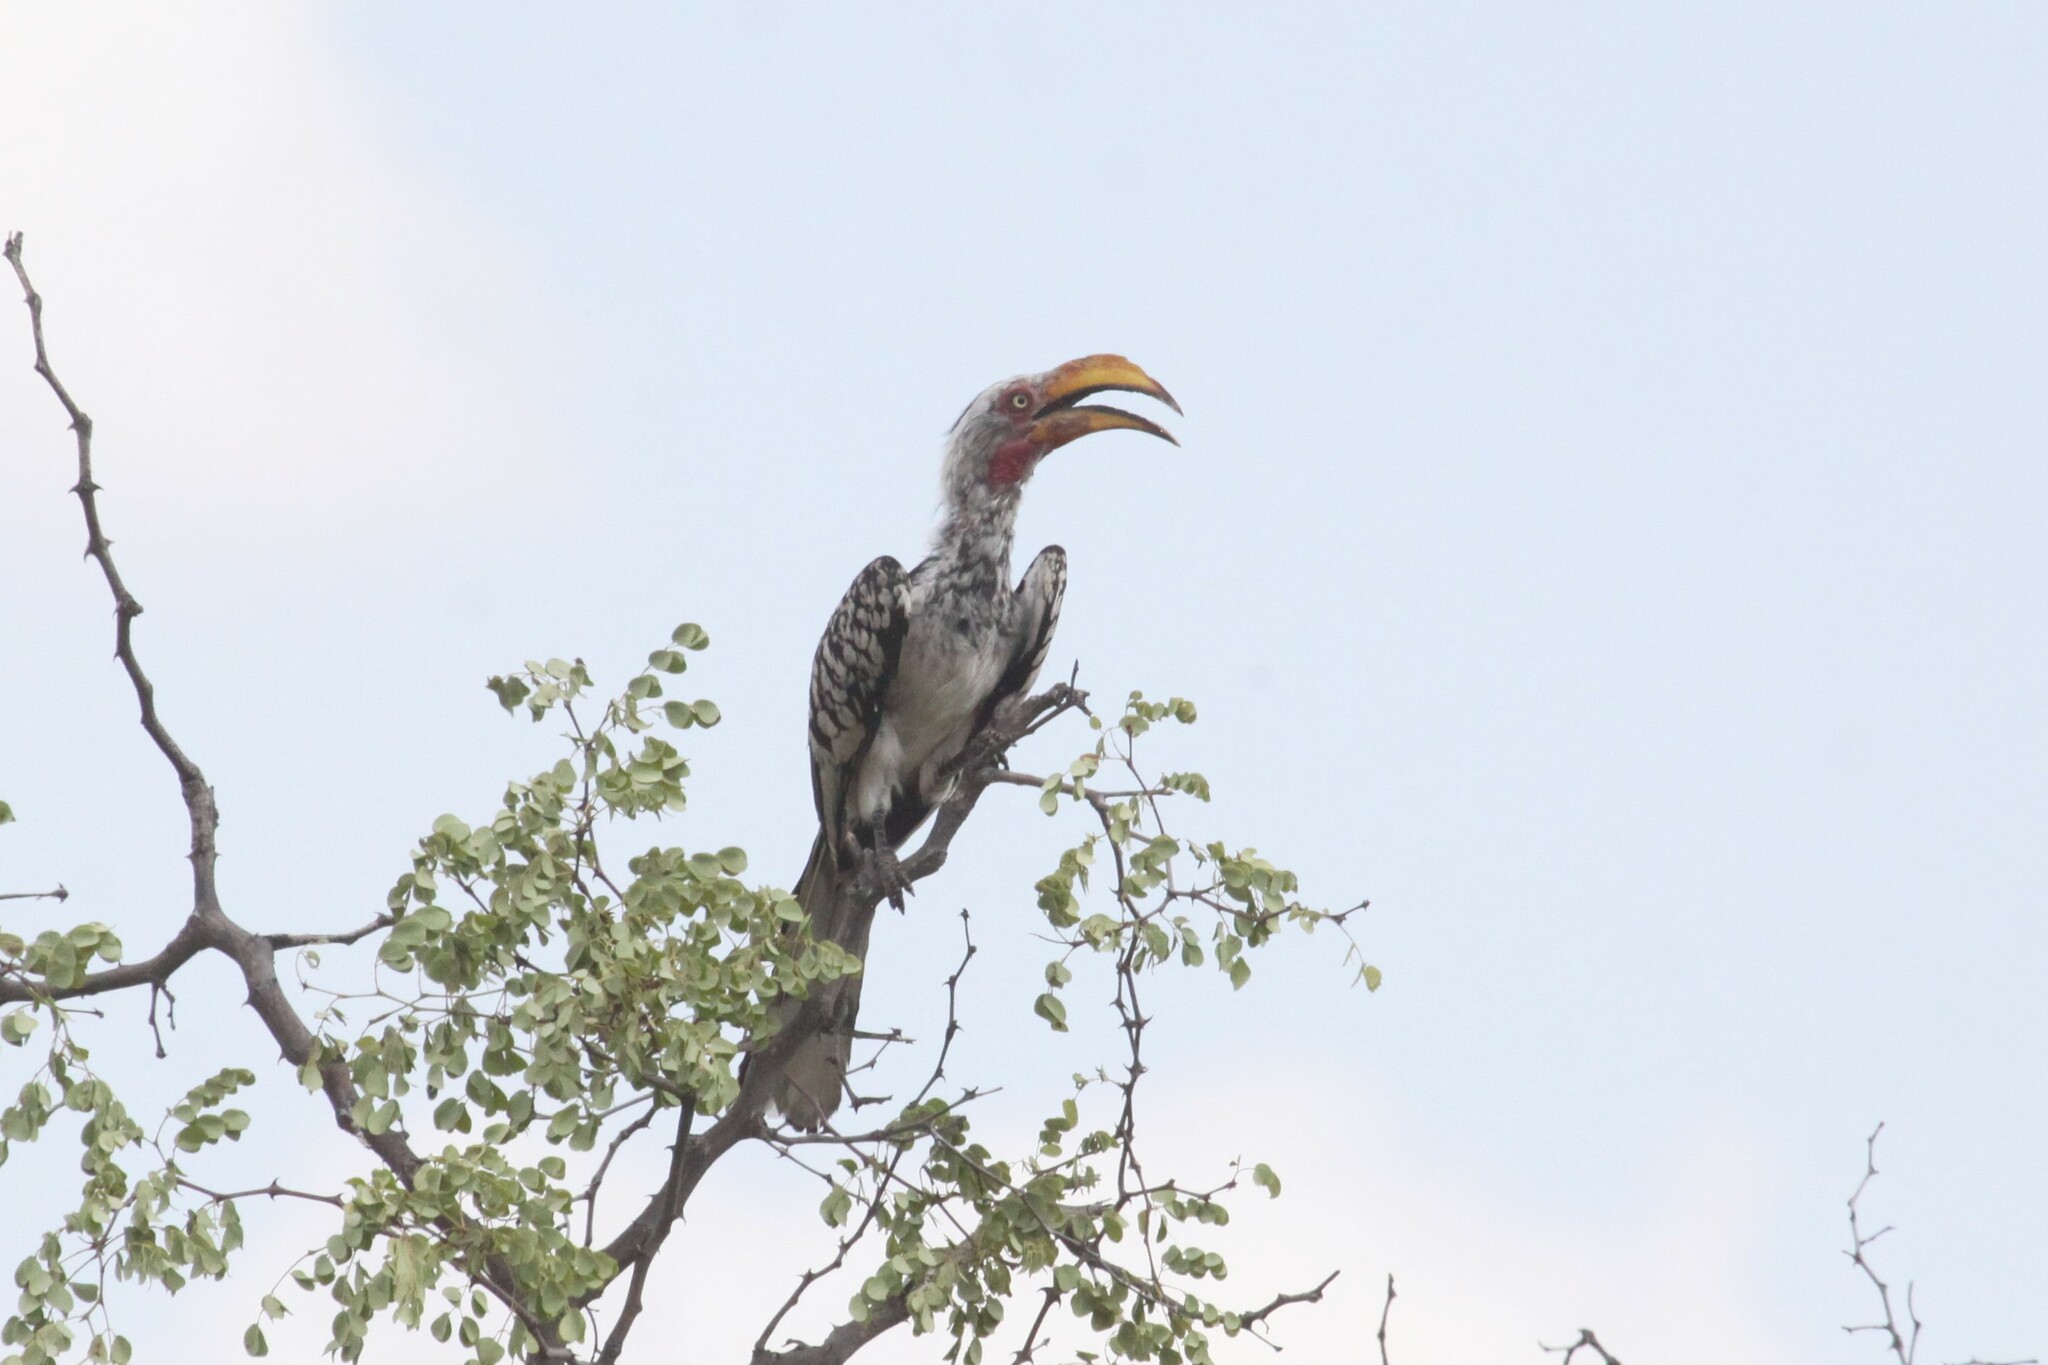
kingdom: Animalia
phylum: Chordata
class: Aves
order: Bucerotiformes
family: Bucerotidae
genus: Tockus
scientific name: Tockus leucomelas
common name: Southern yellow-billed hornbill
